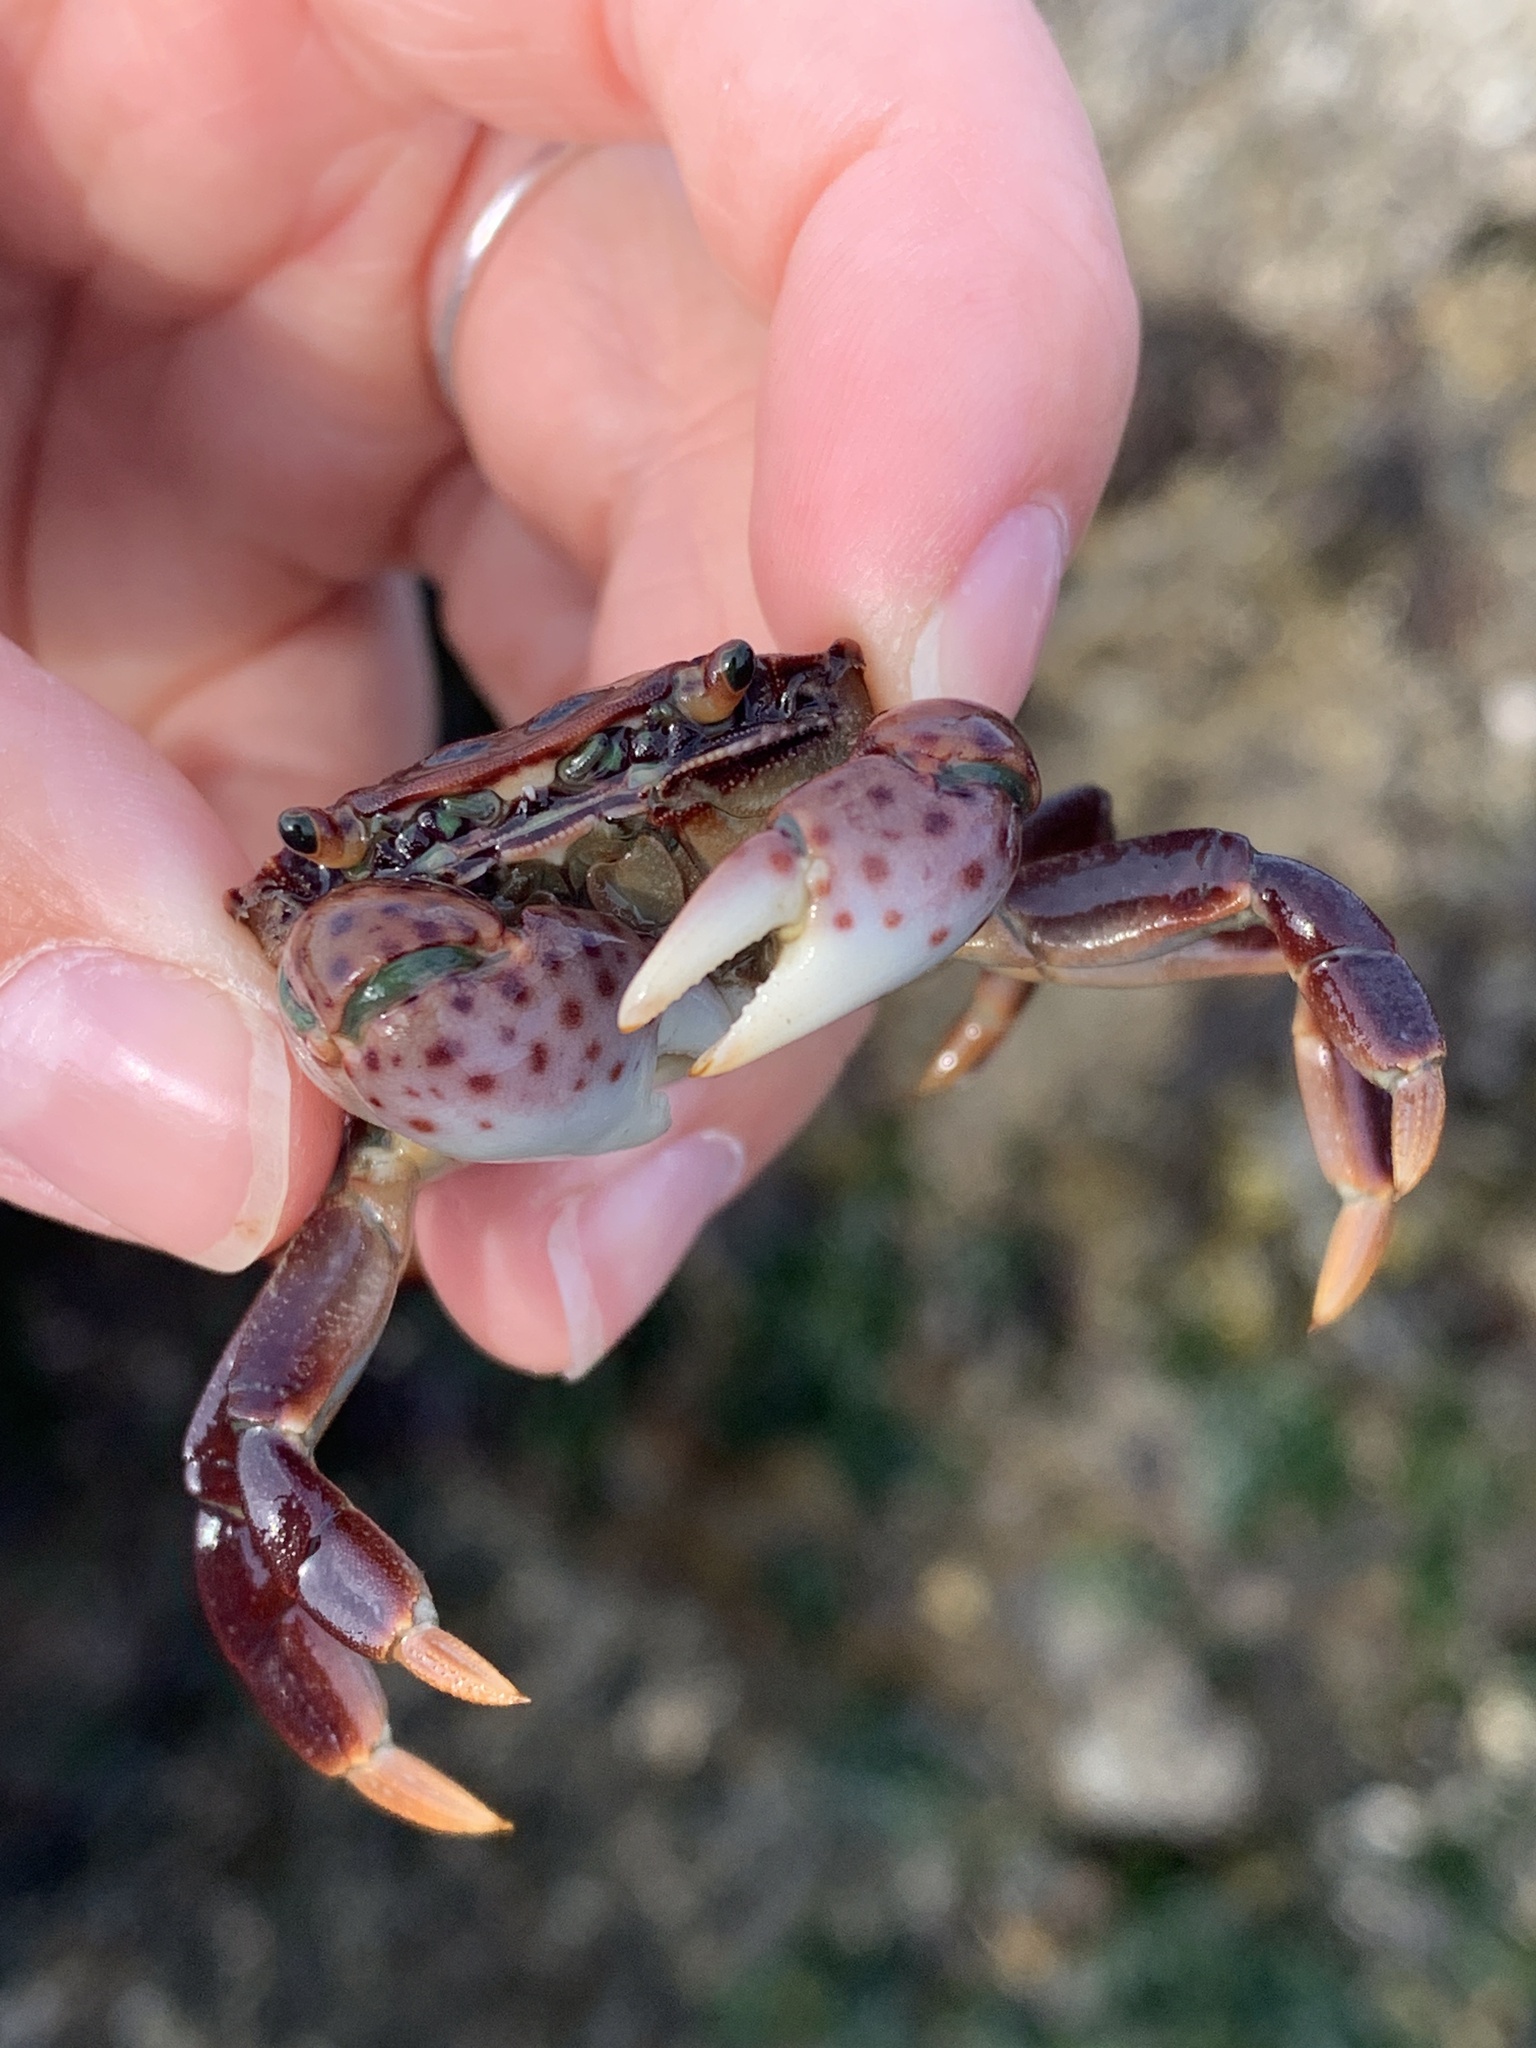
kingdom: Animalia
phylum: Arthropoda
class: Malacostraca
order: Decapoda
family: Varunidae
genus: Hemigrapsus
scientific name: Hemigrapsus nudus
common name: Purple shore crab
